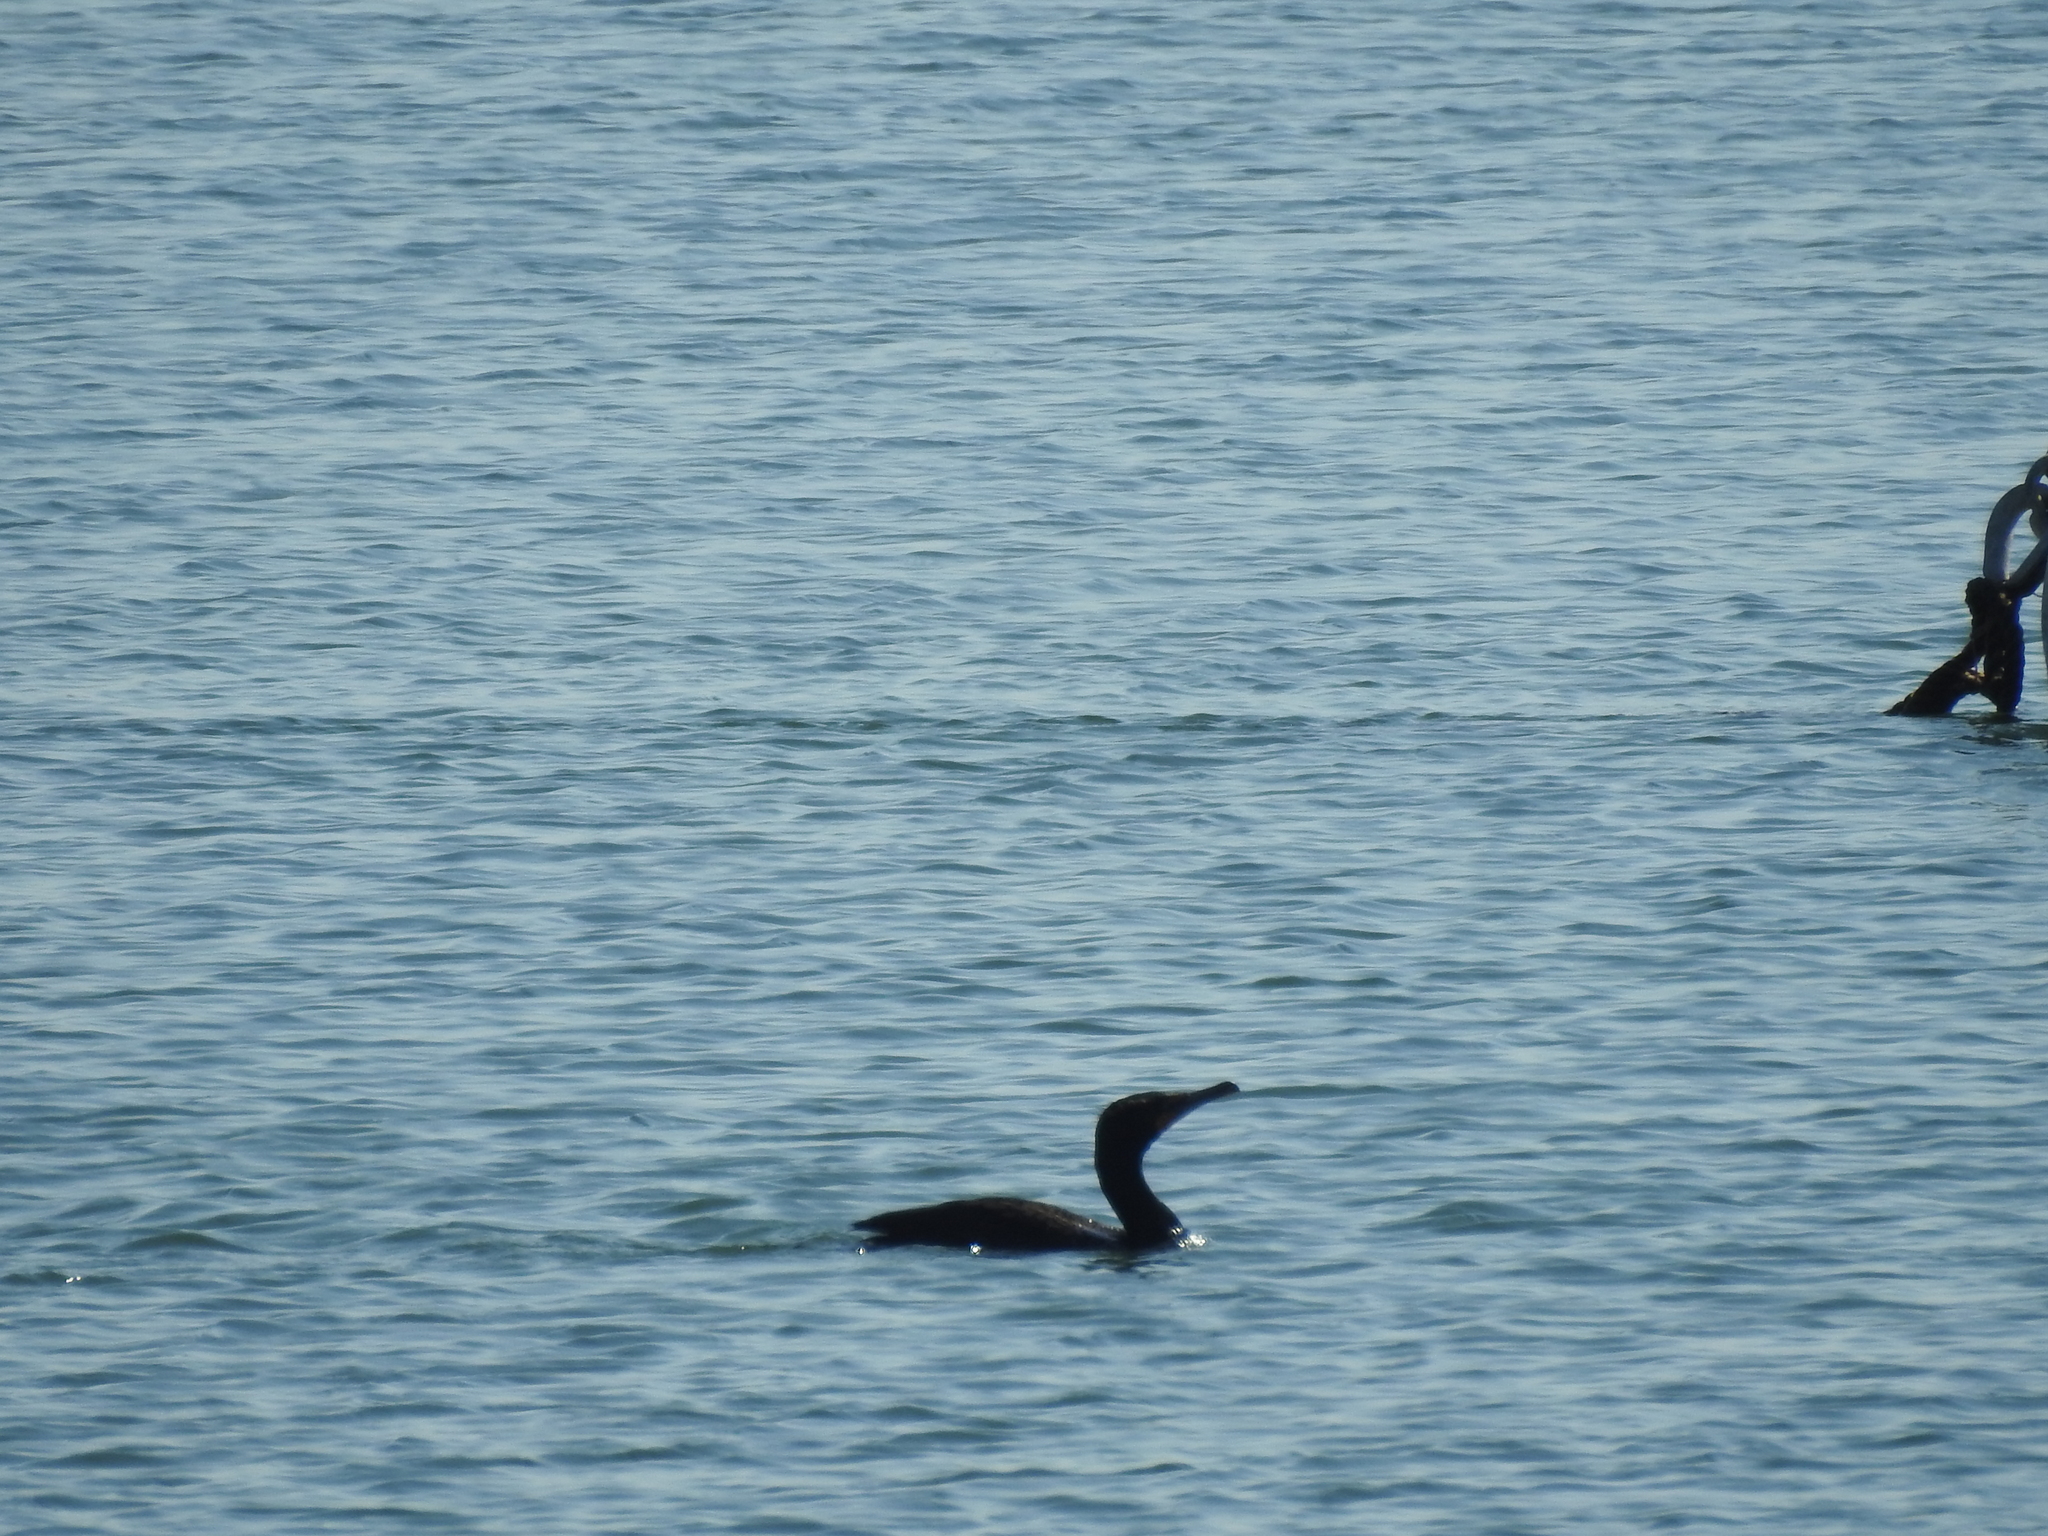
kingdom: Animalia
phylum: Chordata
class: Aves
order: Suliformes
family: Phalacrocoracidae
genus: Phalacrocorax
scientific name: Phalacrocorax auritus
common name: Double-crested cormorant
